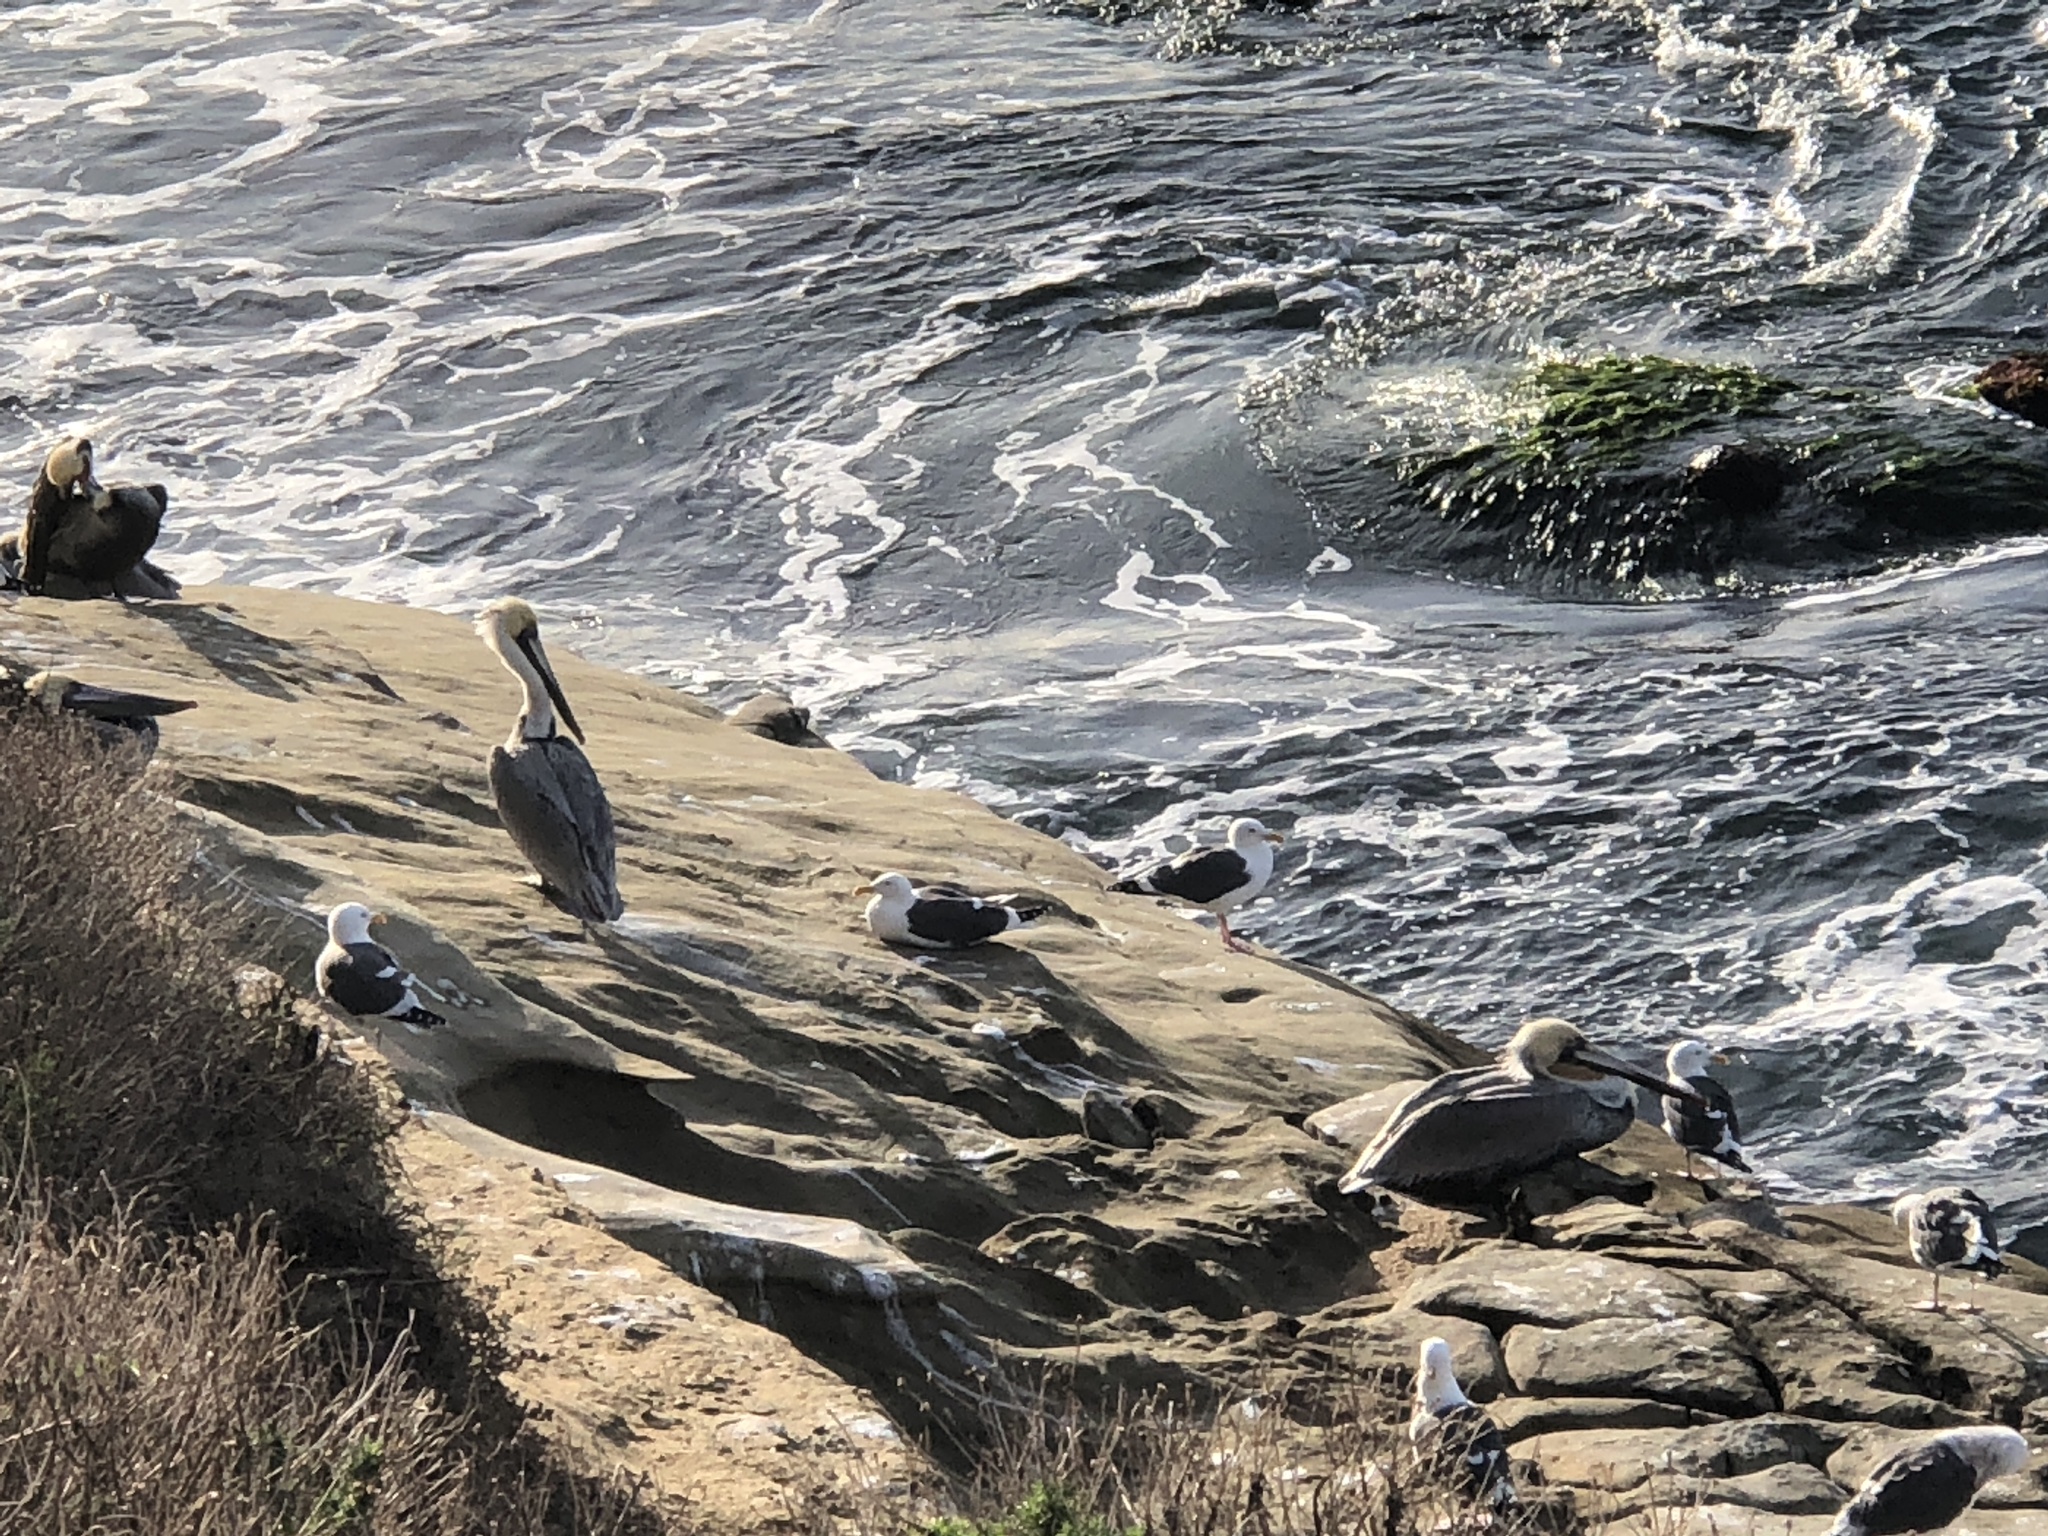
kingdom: Animalia
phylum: Chordata
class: Aves
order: Pelecaniformes
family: Pelecanidae
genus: Pelecanus
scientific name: Pelecanus occidentalis
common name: Brown pelican
